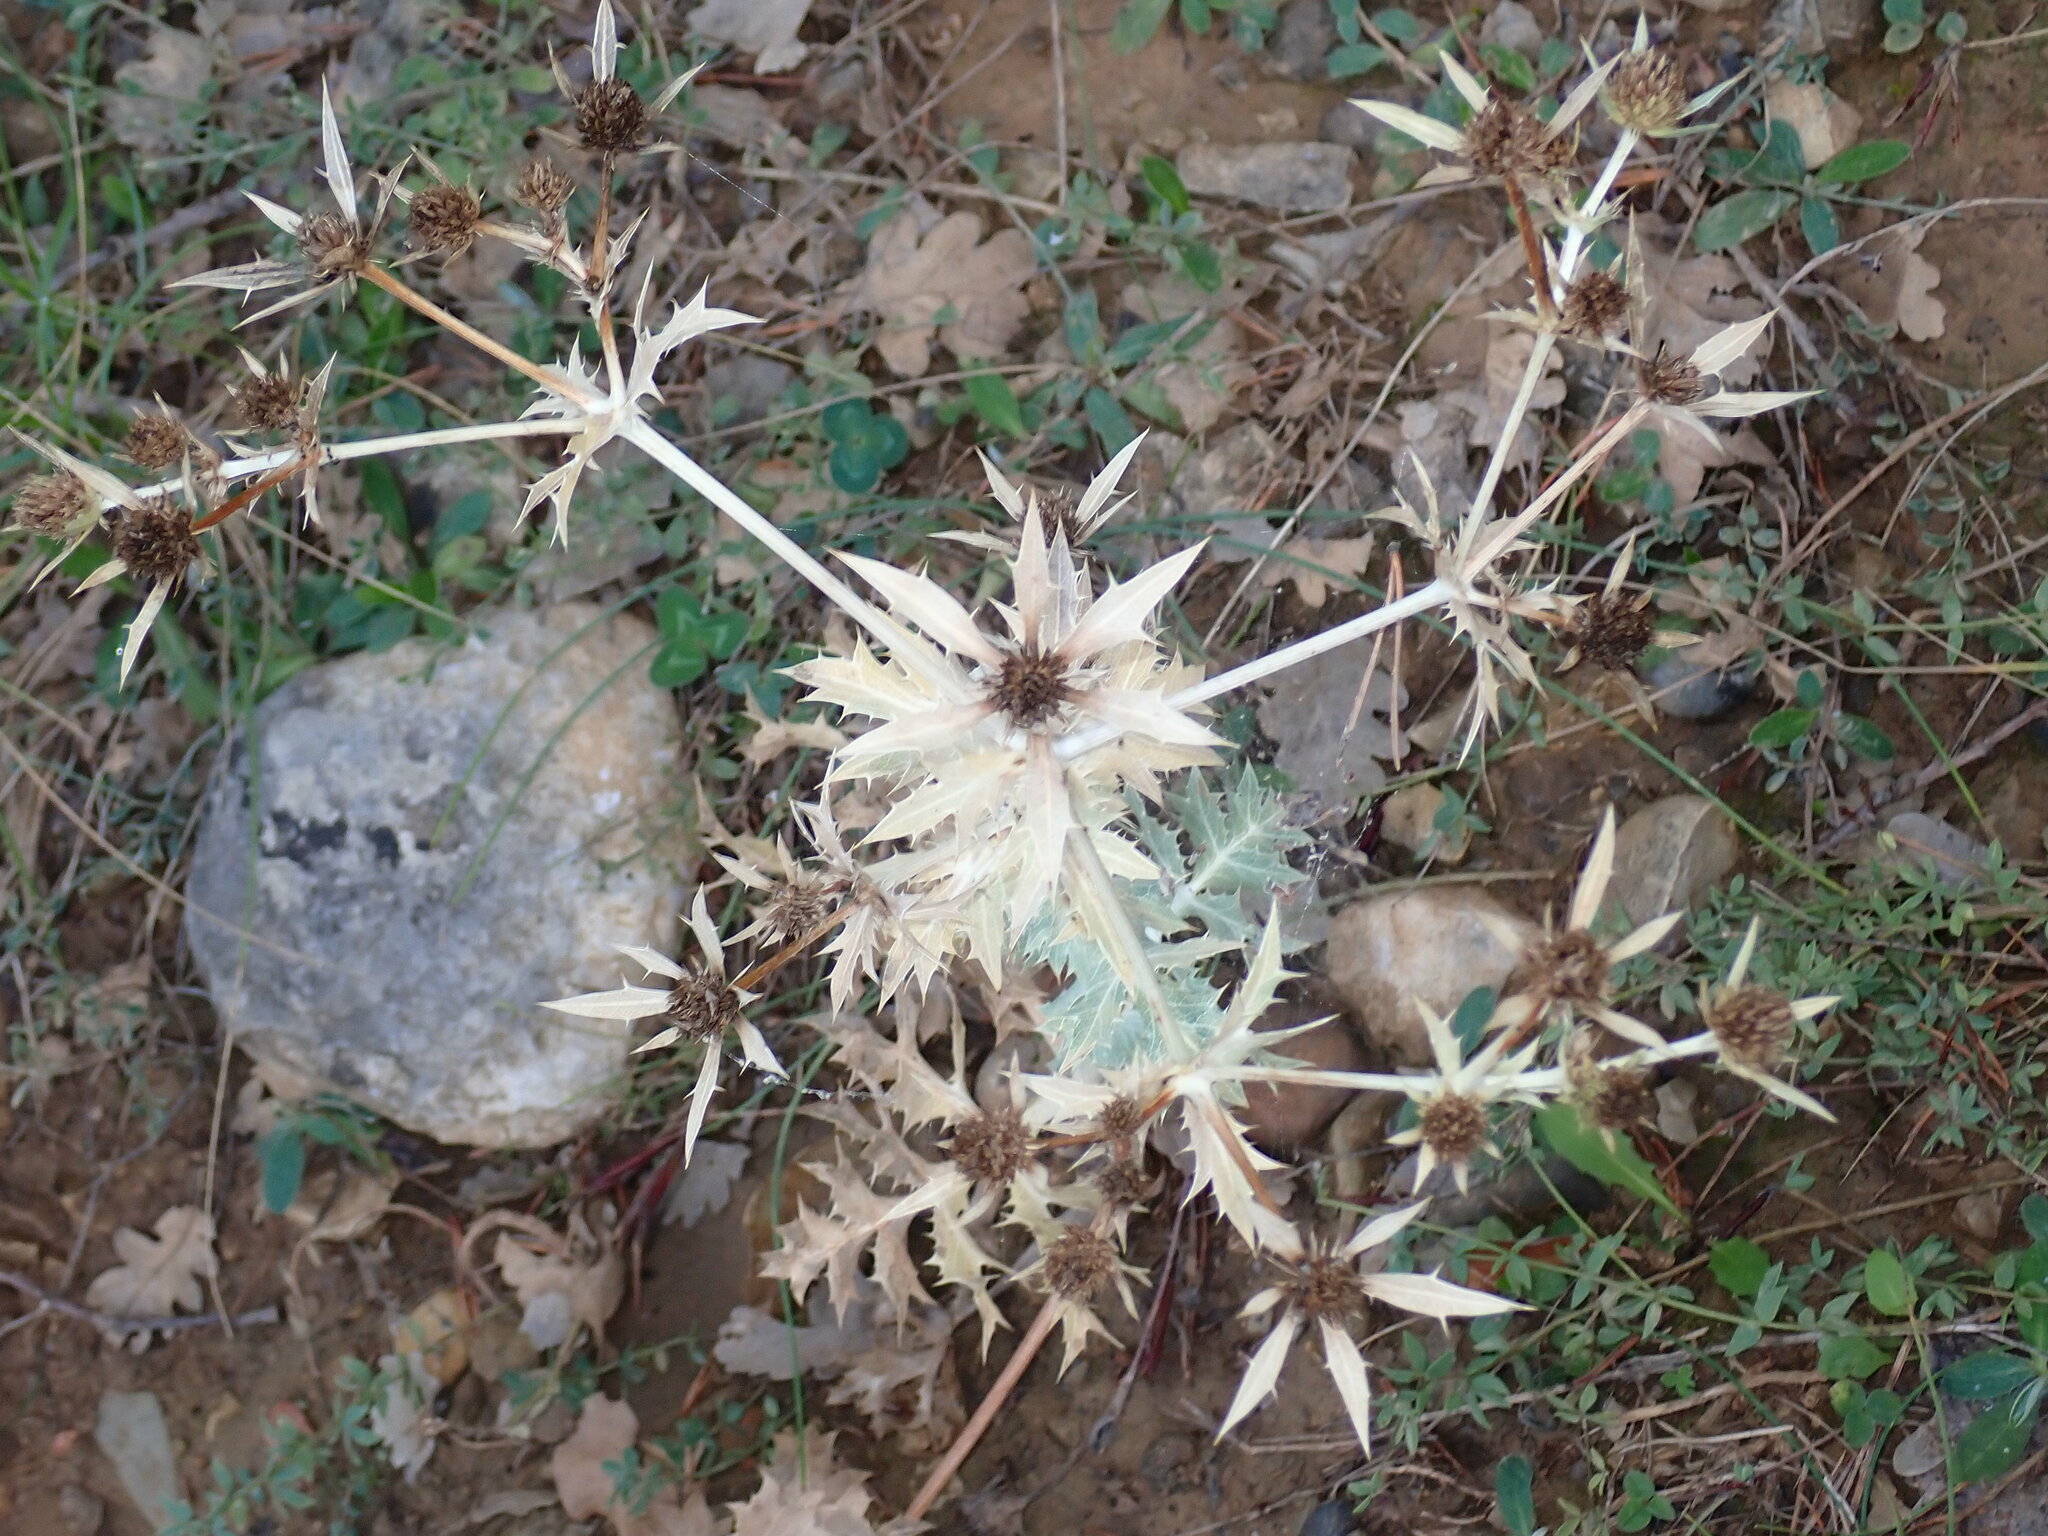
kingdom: Plantae
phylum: Tracheophyta
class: Magnoliopsida
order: Apiales
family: Apiaceae
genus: Eryngium
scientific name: Eryngium campestre
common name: Field eryngo
